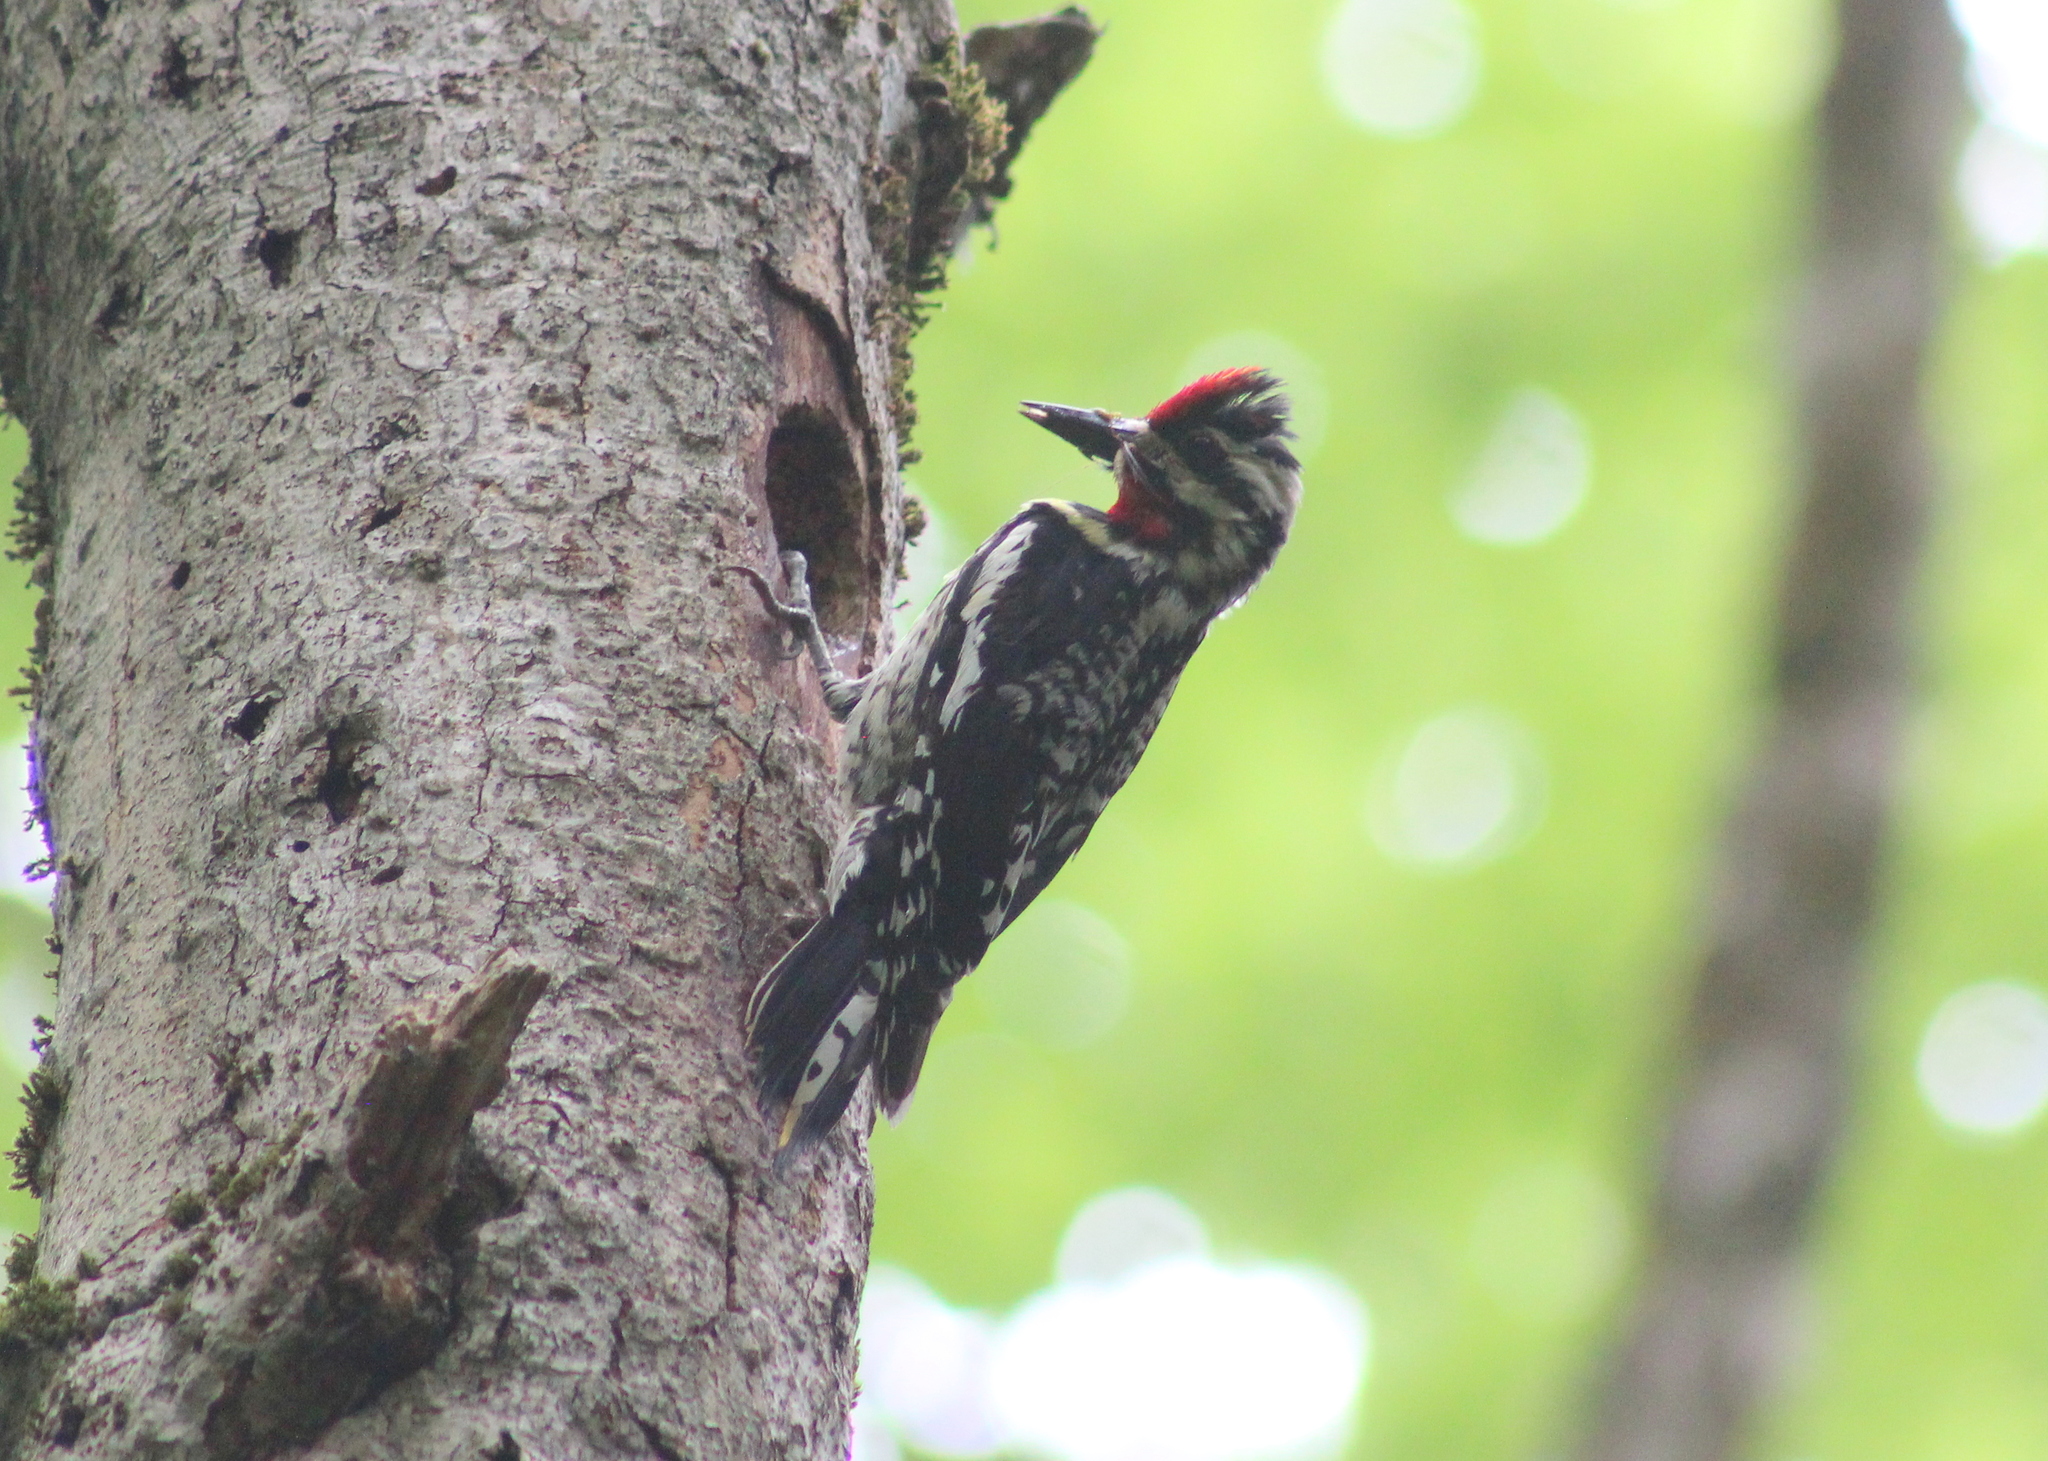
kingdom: Animalia
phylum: Chordata
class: Aves
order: Piciformes
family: Picidae
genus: Sphyrapicus
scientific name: Sphyrapicus varius
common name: Yellow-bellied sapsucker
